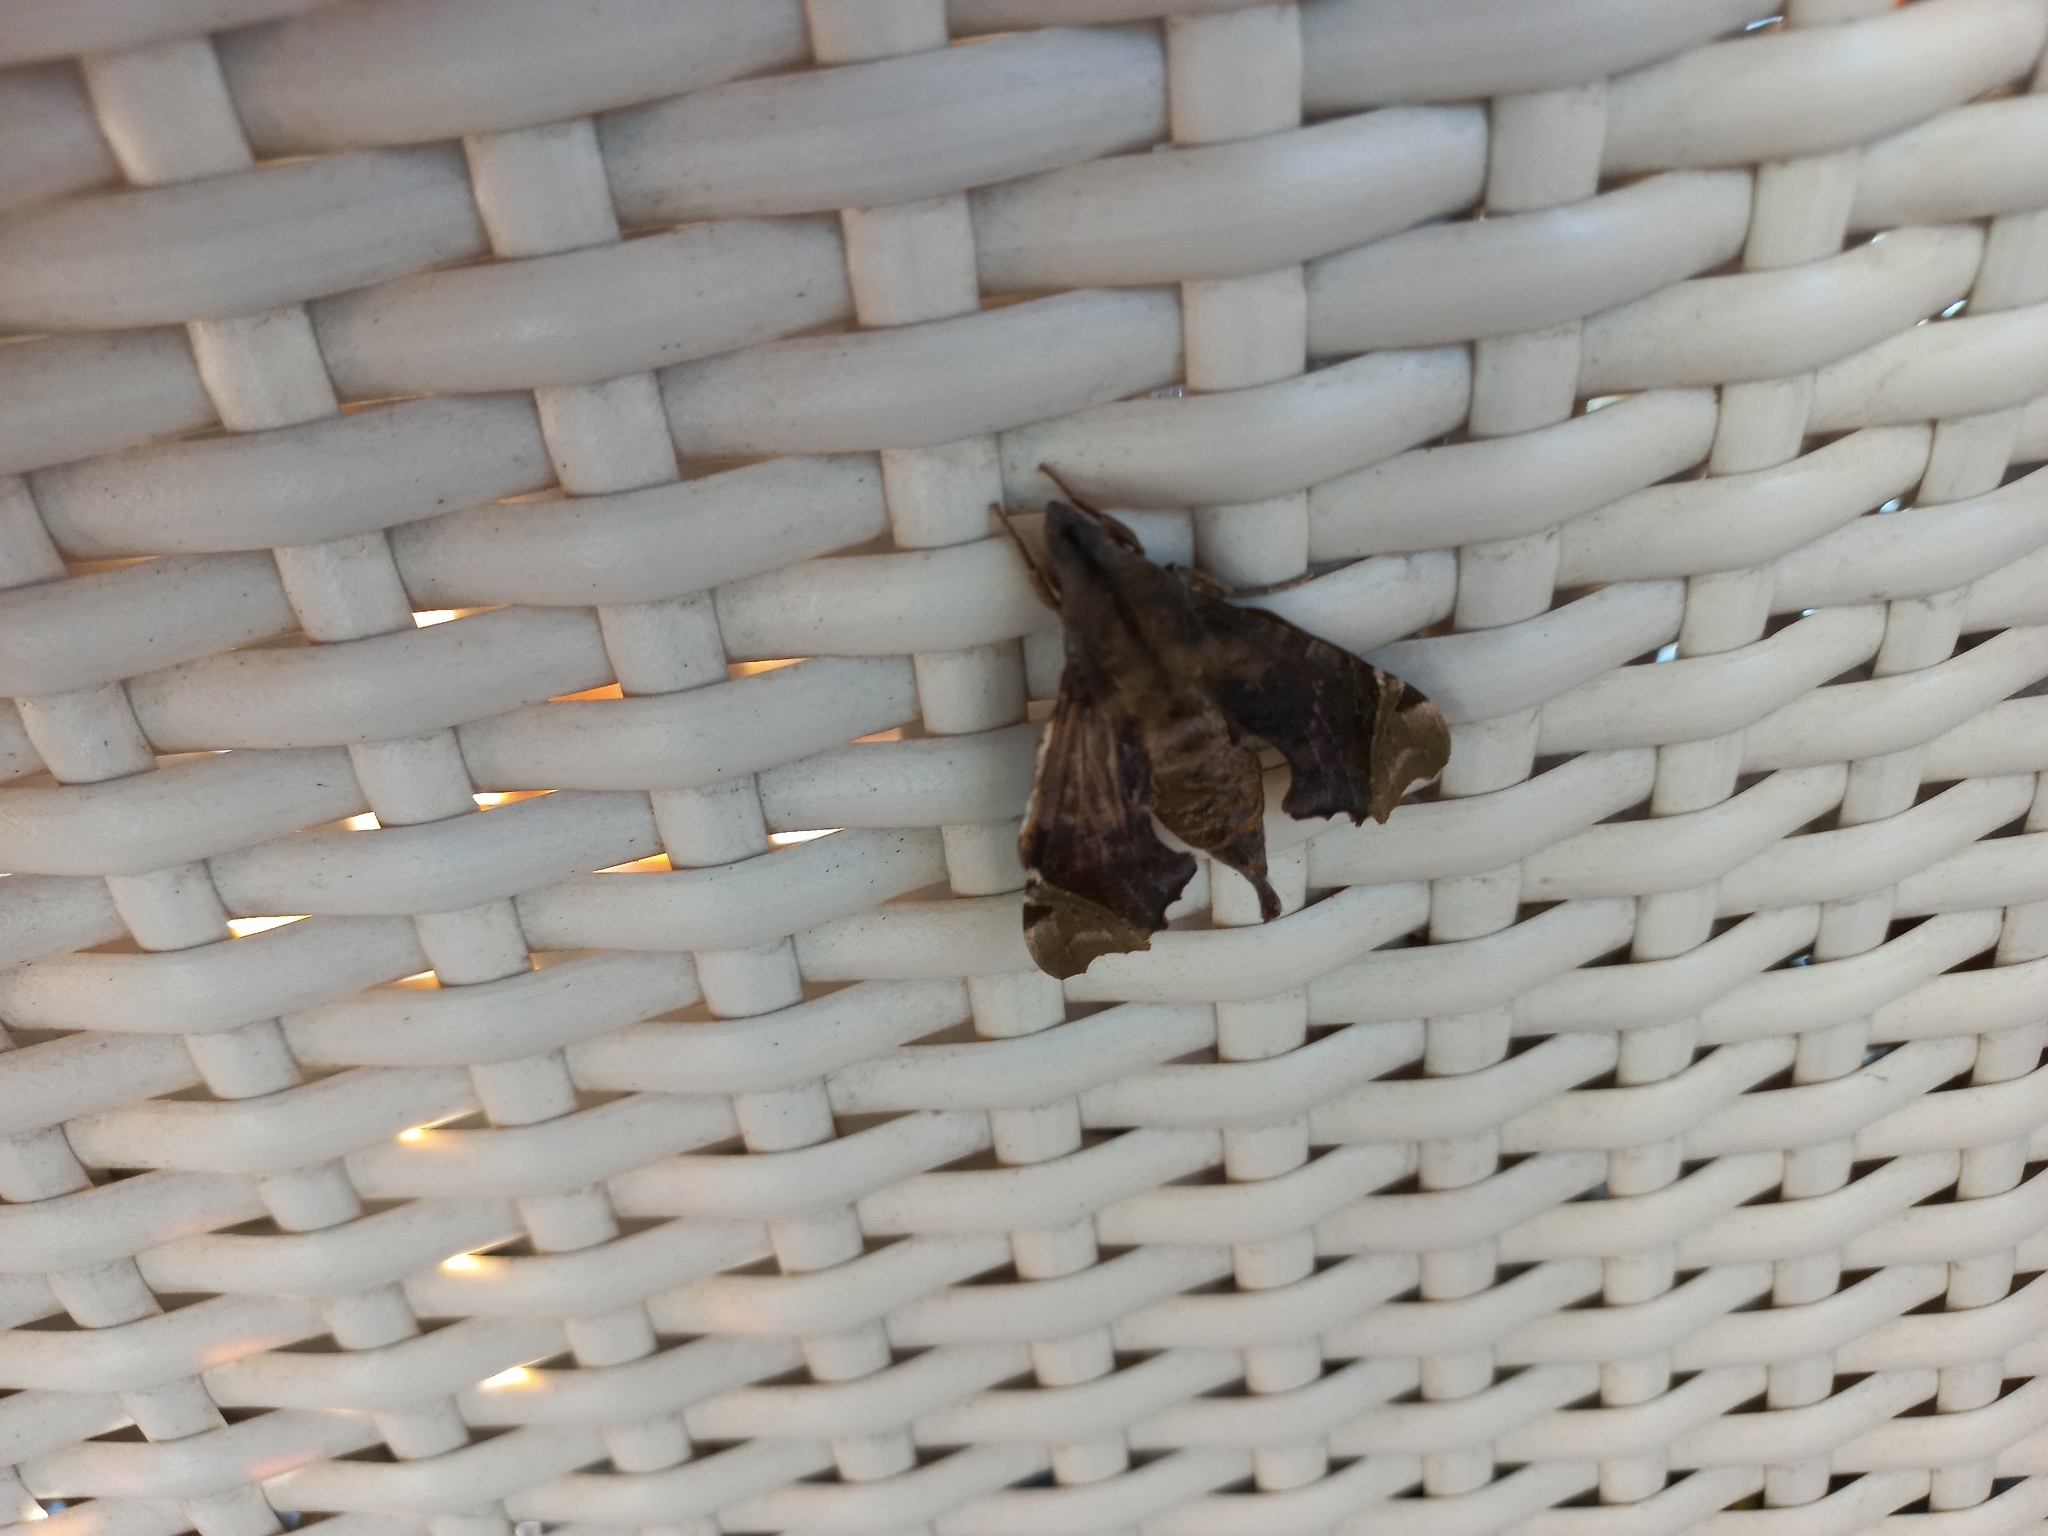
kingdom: Animalia
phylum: Arthropoda
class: Insecta
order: Lepidoptera
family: Sphingidae
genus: Temnora
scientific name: Temnora zantus
